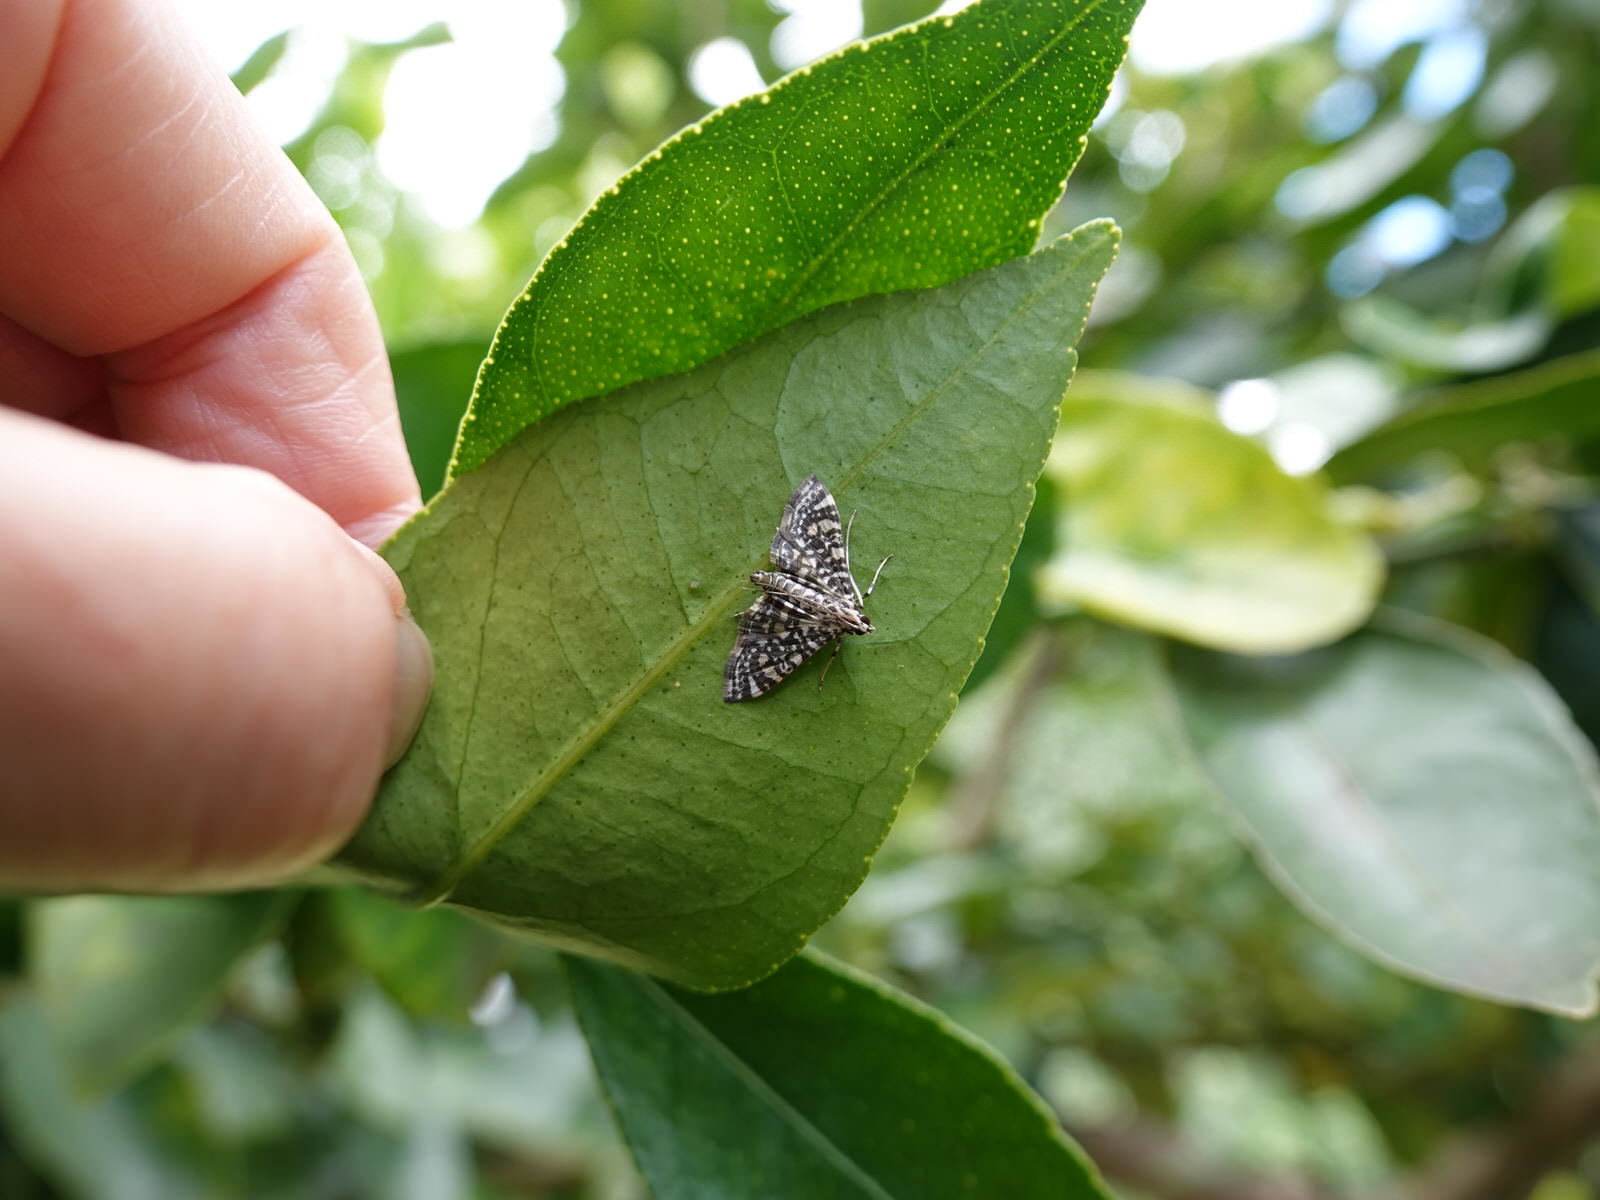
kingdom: Animalia
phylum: Arthropoda
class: Insecta
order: Lepidoptera
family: Crambidae
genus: Glyphodes
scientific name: Glyphodes onychinalis
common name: Swan plant moth
